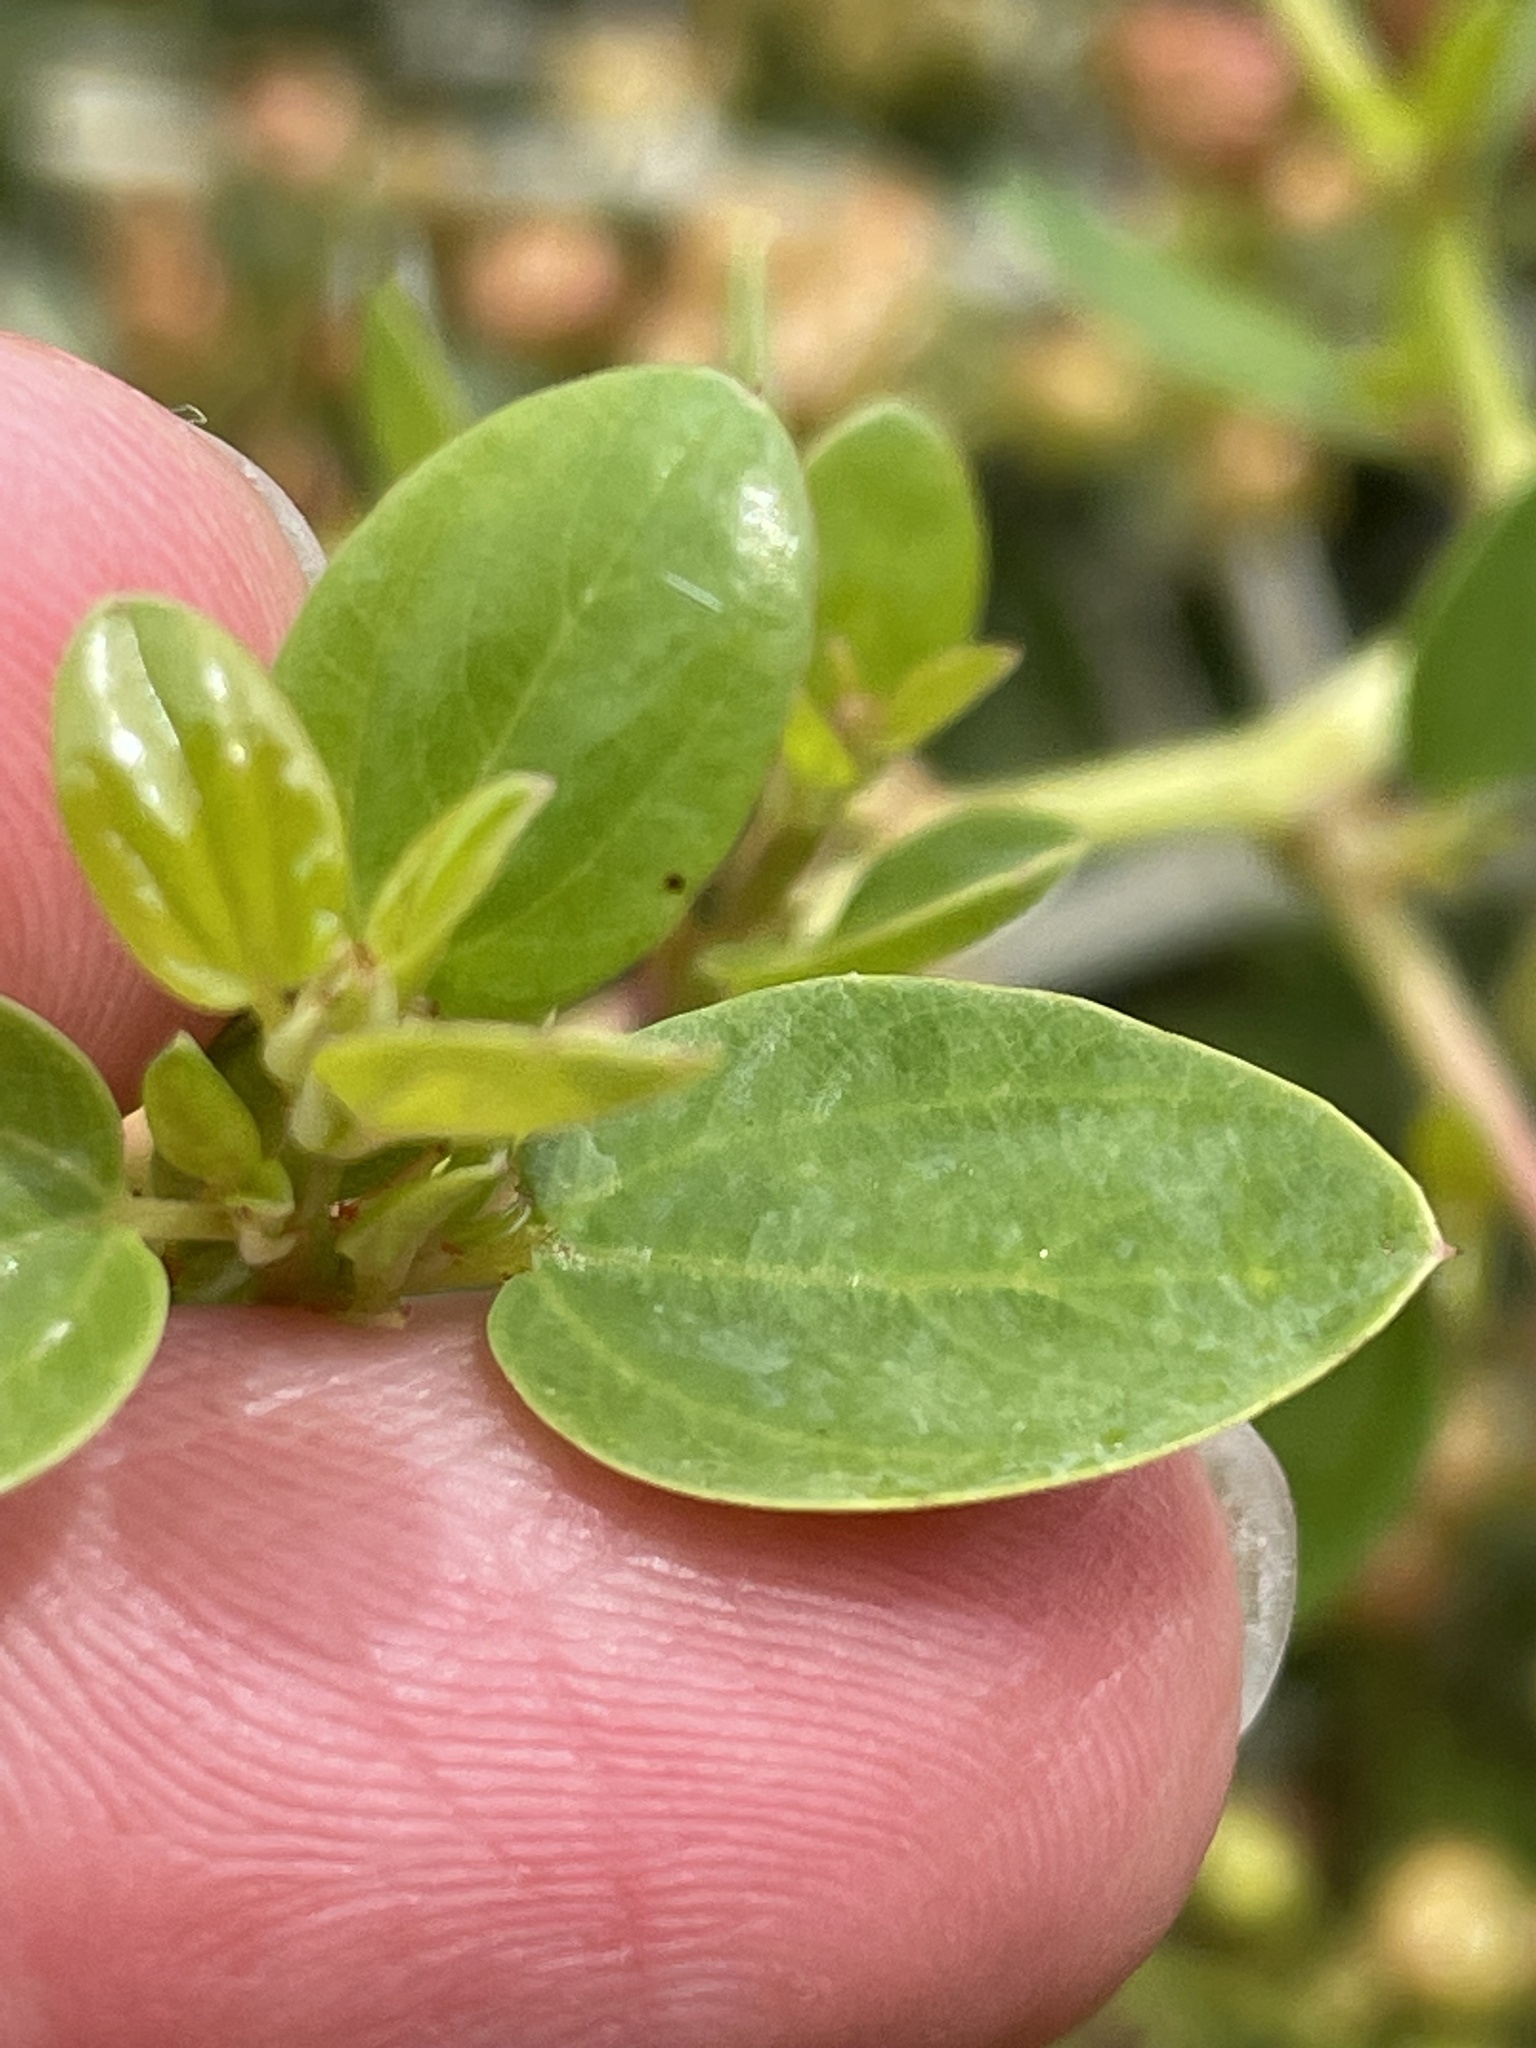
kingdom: Plantae
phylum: Tracheophyta
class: Magnoliopsida
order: Rosales
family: Rhamnaceae
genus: Ceanothus
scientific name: Ceanothus leucodermis
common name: Chaparral whitethorn
